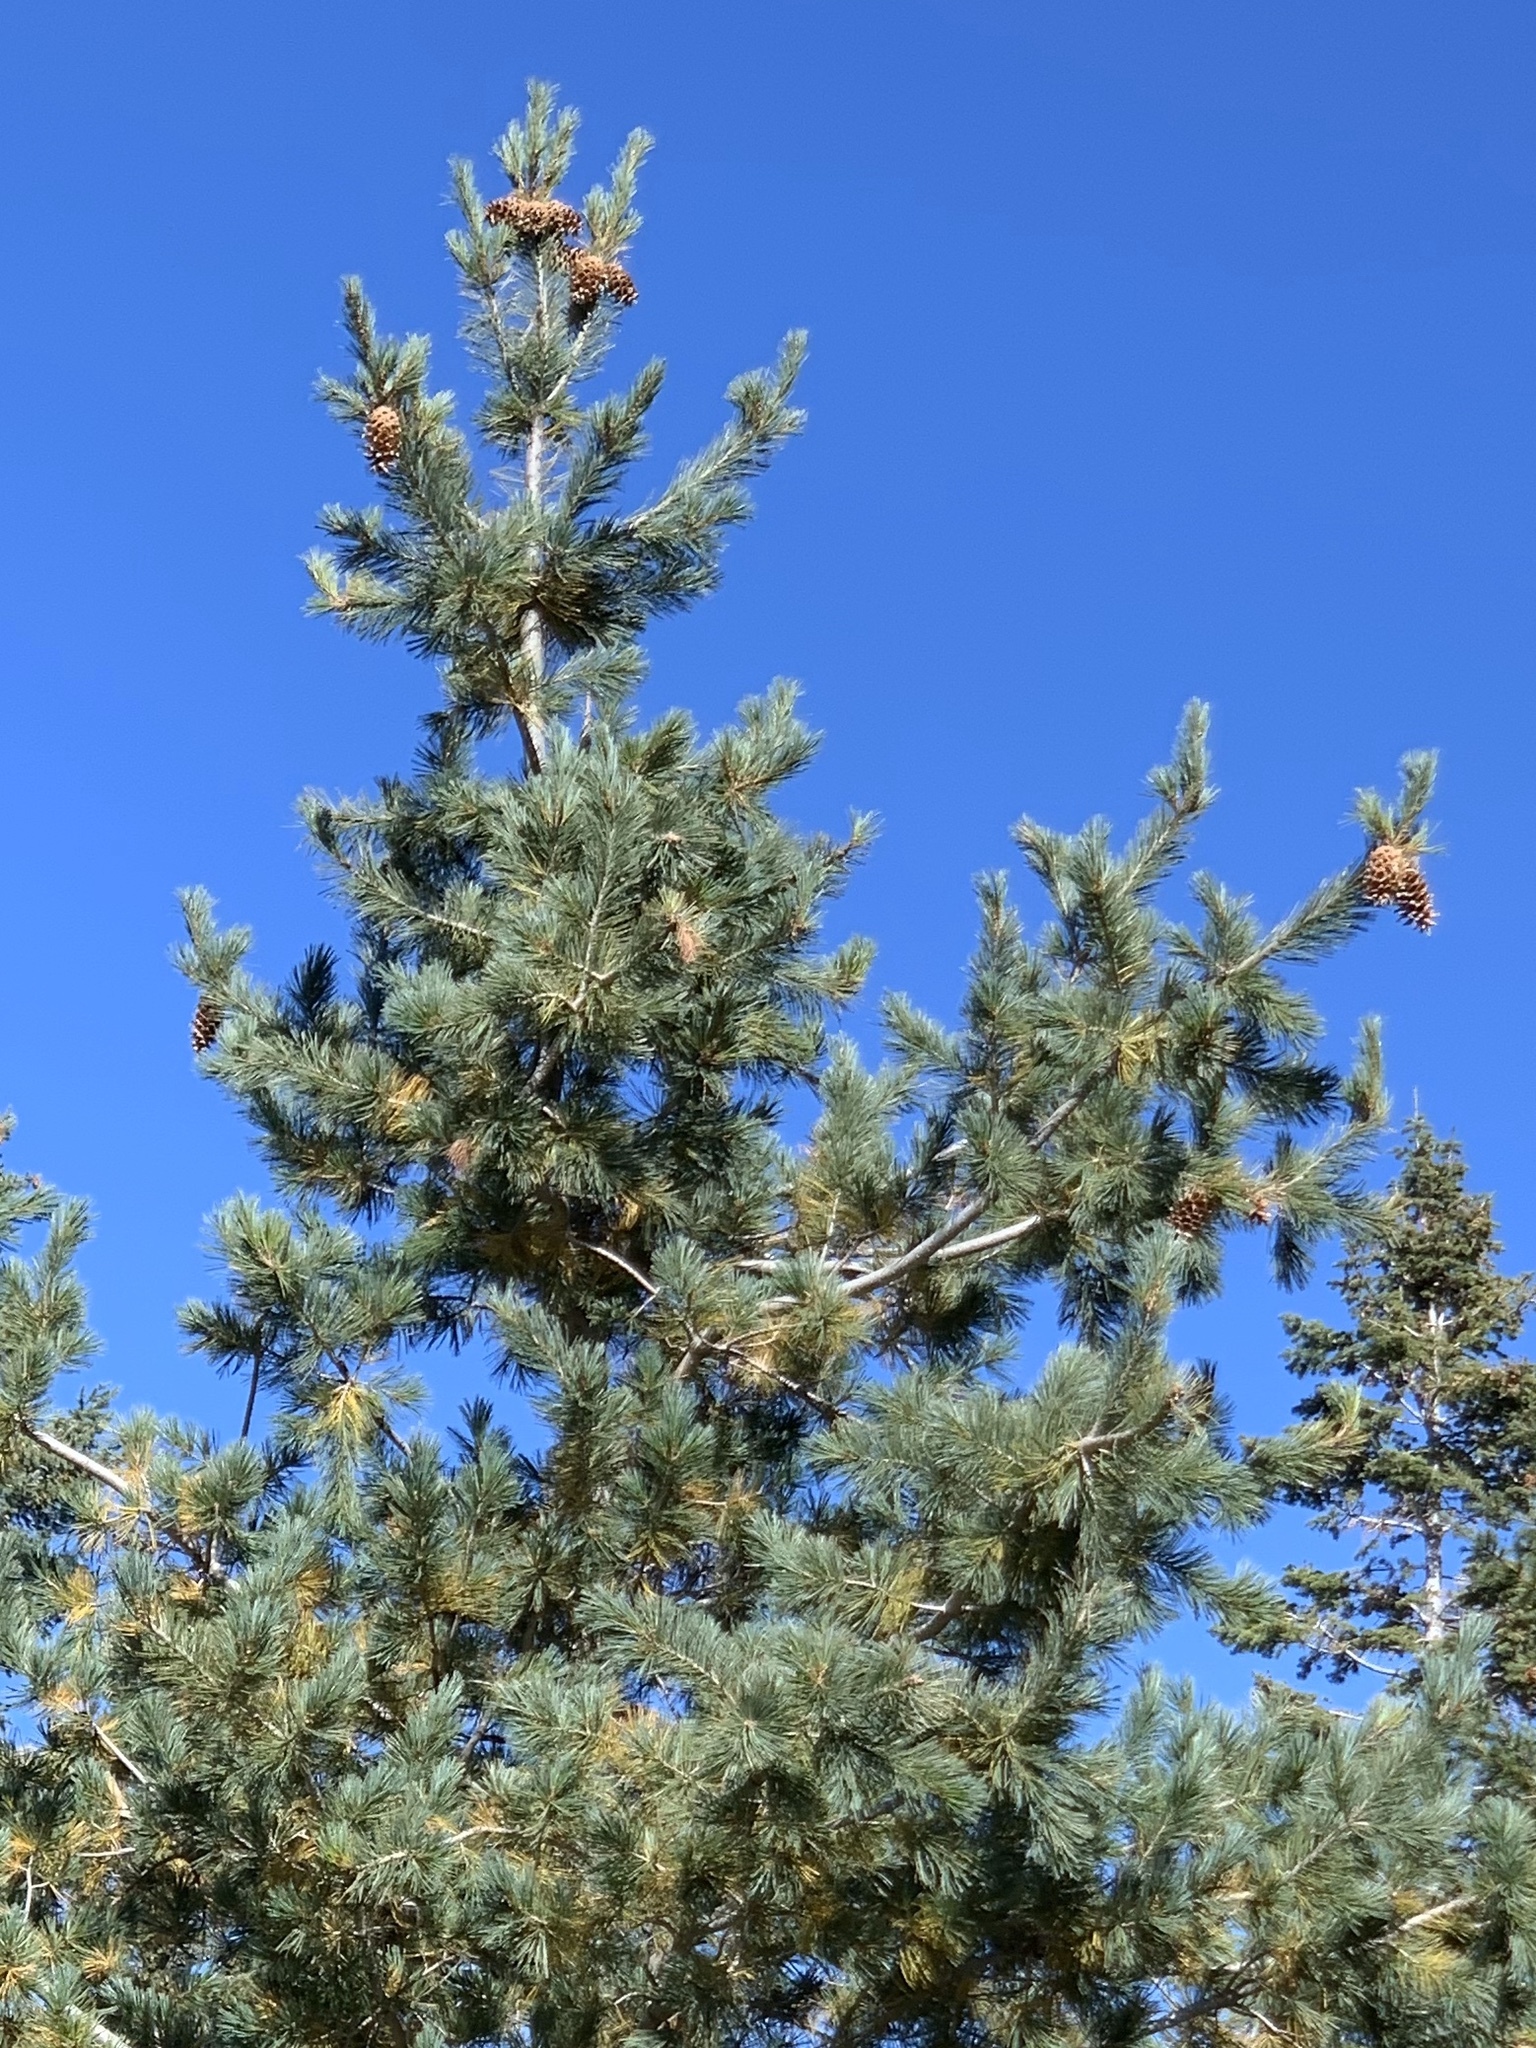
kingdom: Plantae
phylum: Tracheophyta
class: Pinopsida
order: Pinales
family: Pinaceae
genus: Pinus
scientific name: Pinus strobiformis
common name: Southwestern white pine
